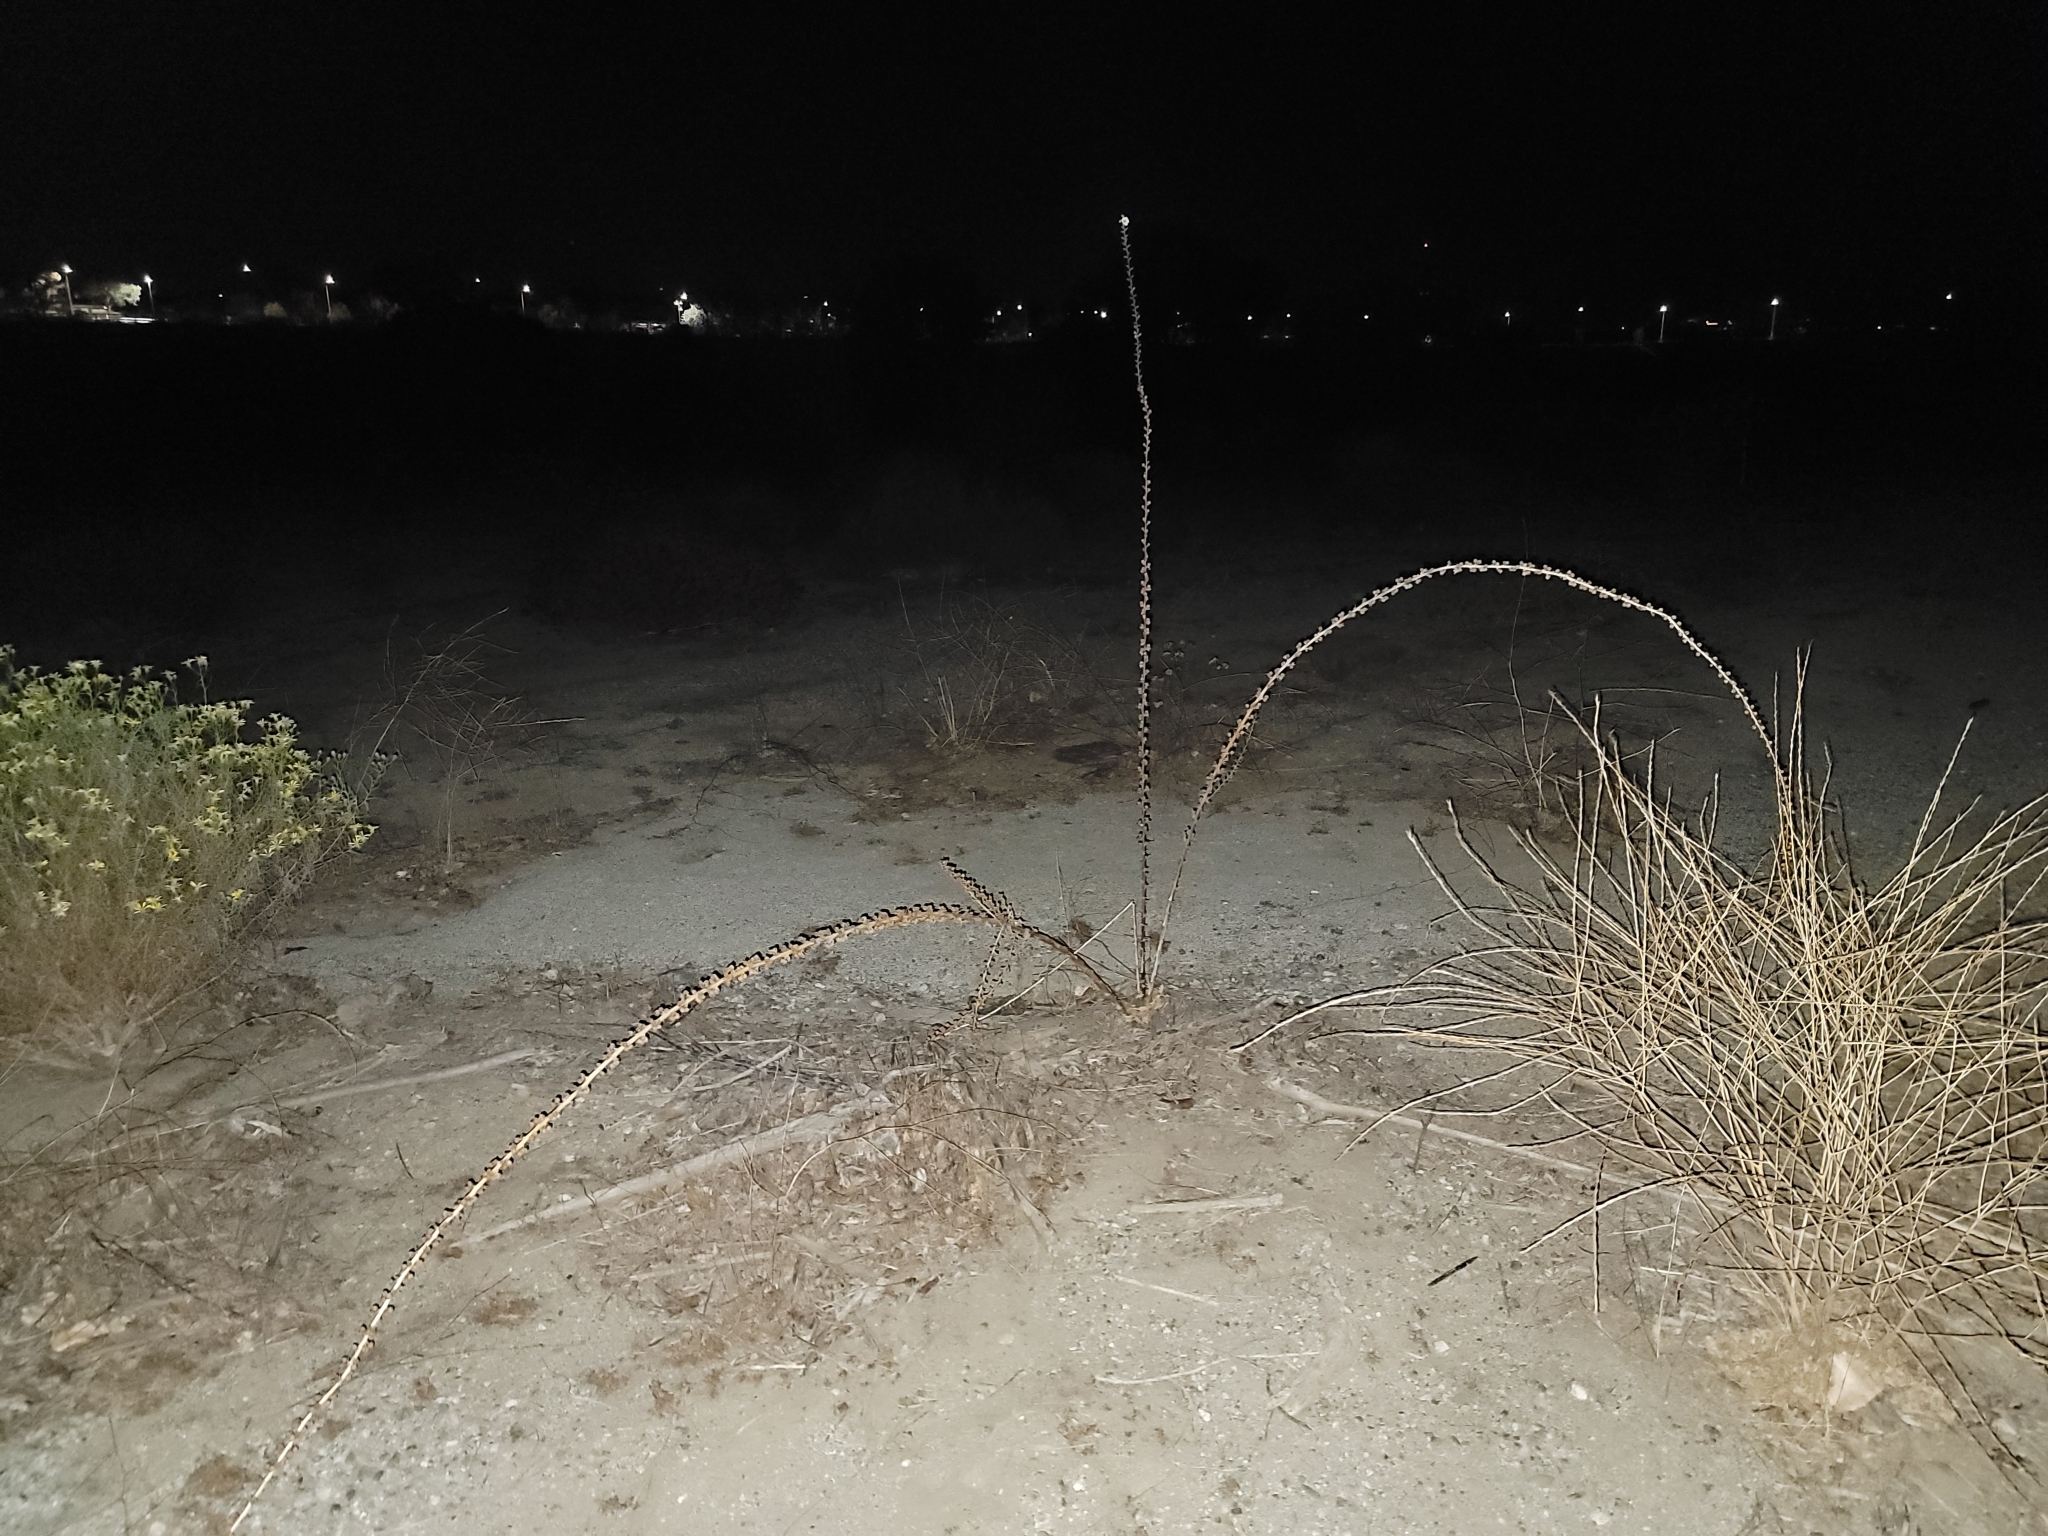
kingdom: Plantae
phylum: Tracheophyta
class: Magnoliopsida
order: Lamiales
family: Scrophulariaceae
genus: Verbascum
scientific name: Verbascum virgatum
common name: Twiggy mullein
